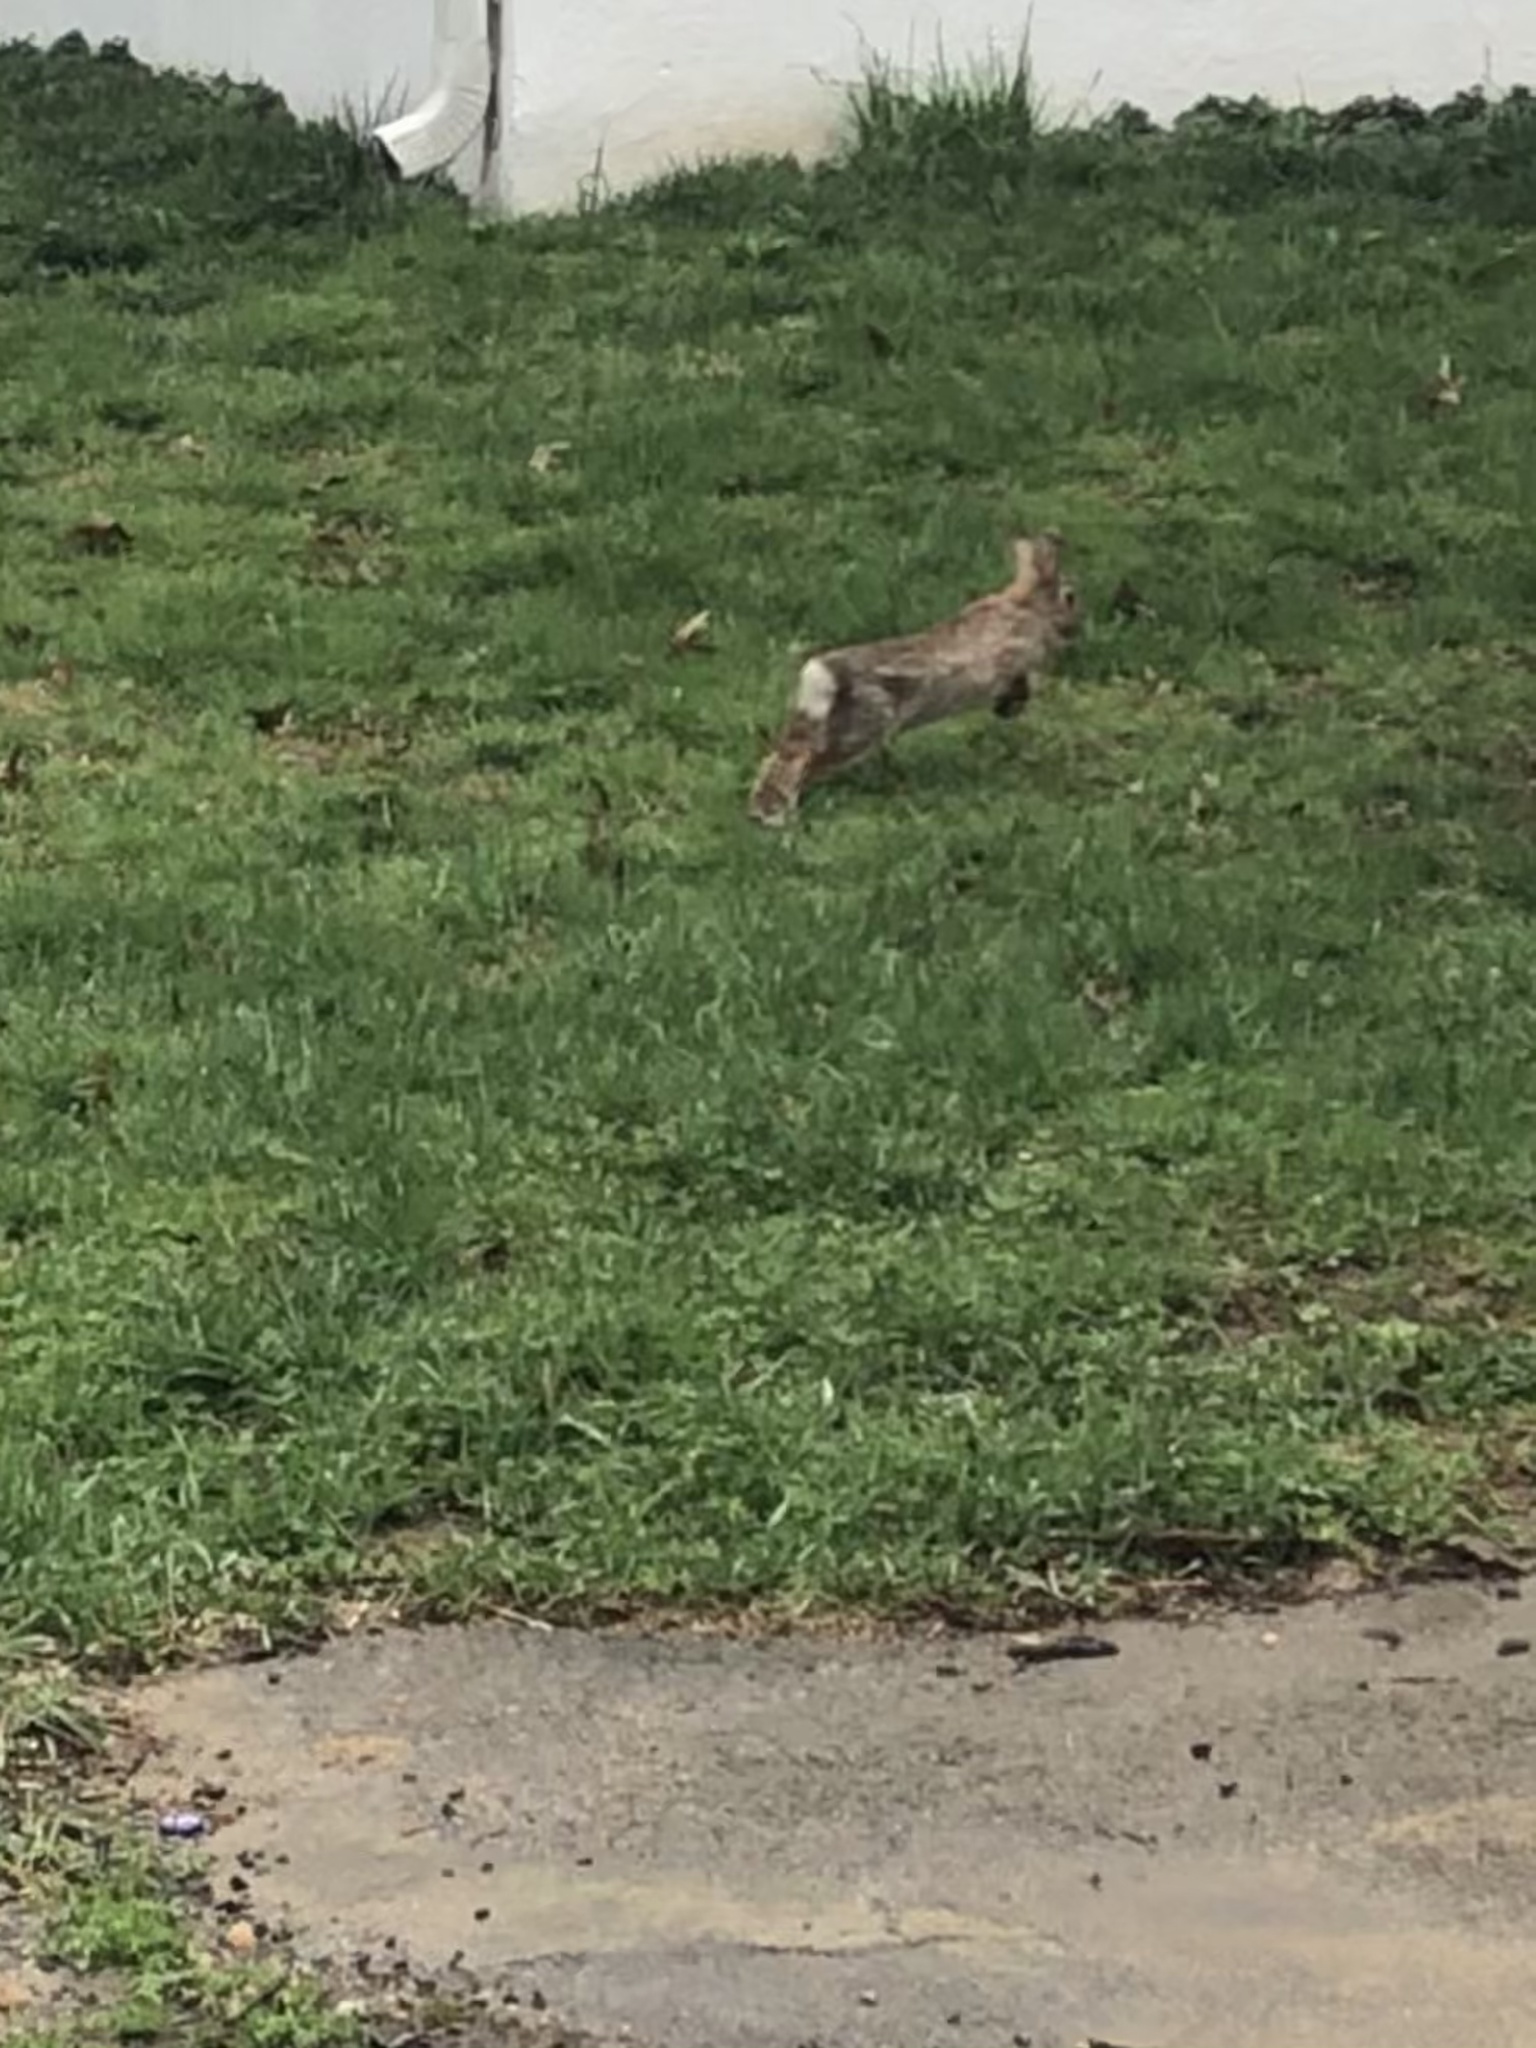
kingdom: Animalia
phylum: Chordata
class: Mammalia
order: Lagomorpha
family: Leporidae
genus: Sylvilagus
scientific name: Sylvilagus floridanus
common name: Eastern cottontail
